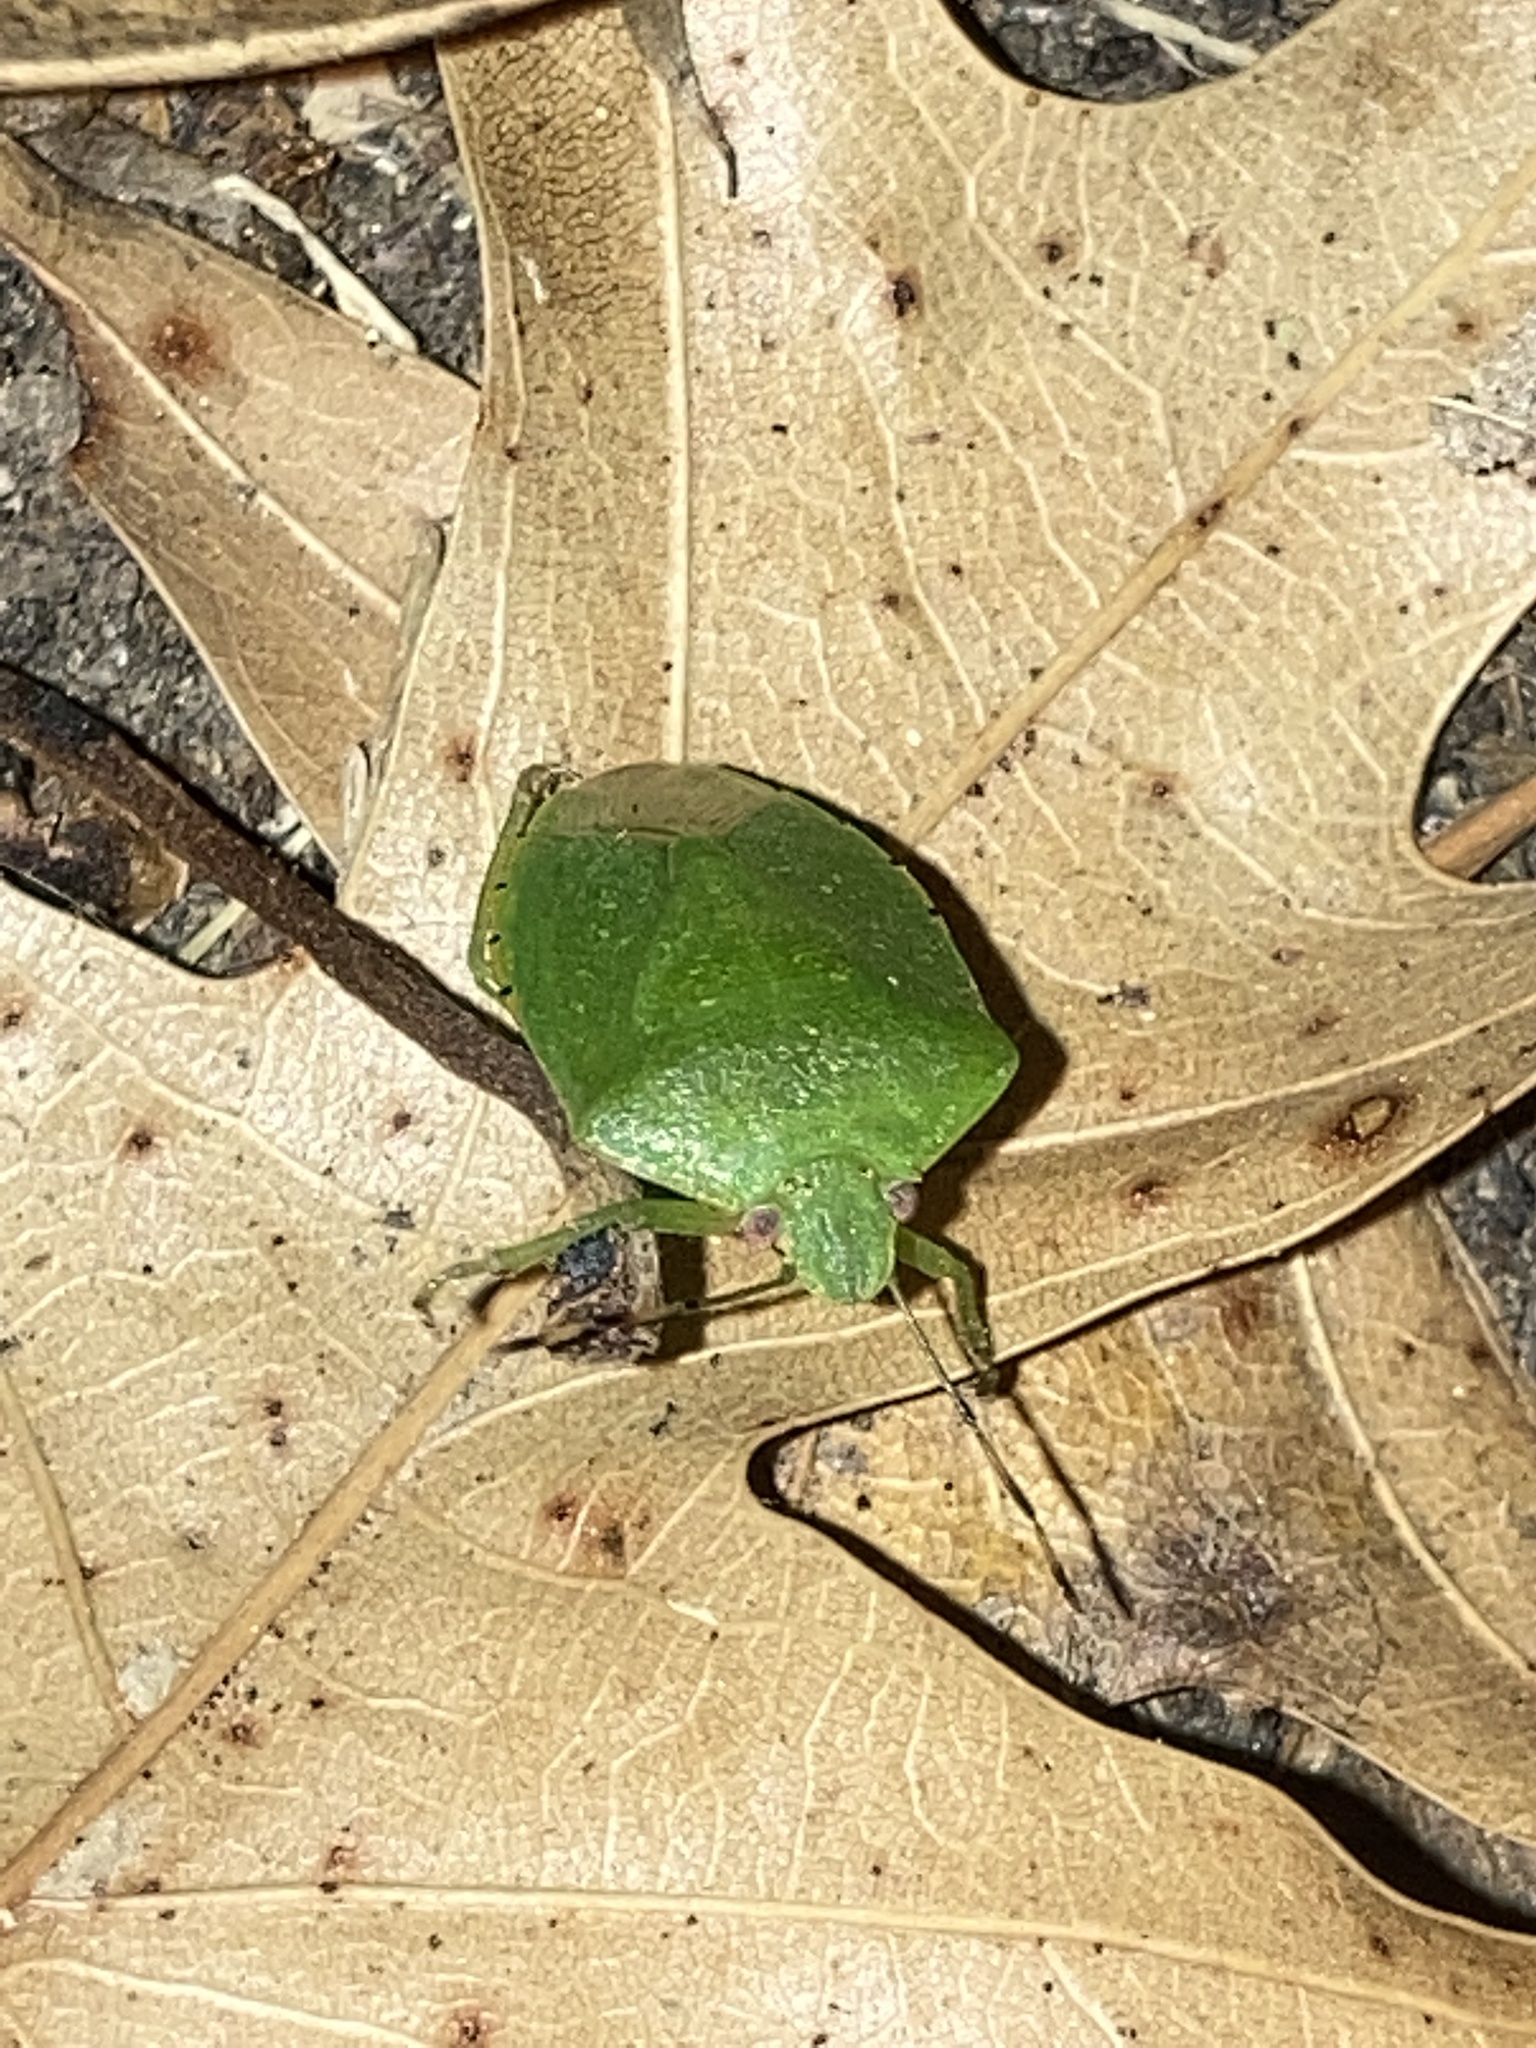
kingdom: Animalia
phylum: Arthropoda
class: Insecta
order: Hemiptera
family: Pentatomidae
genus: Chinavia
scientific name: Chinavia hilaris
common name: Green stink bug
